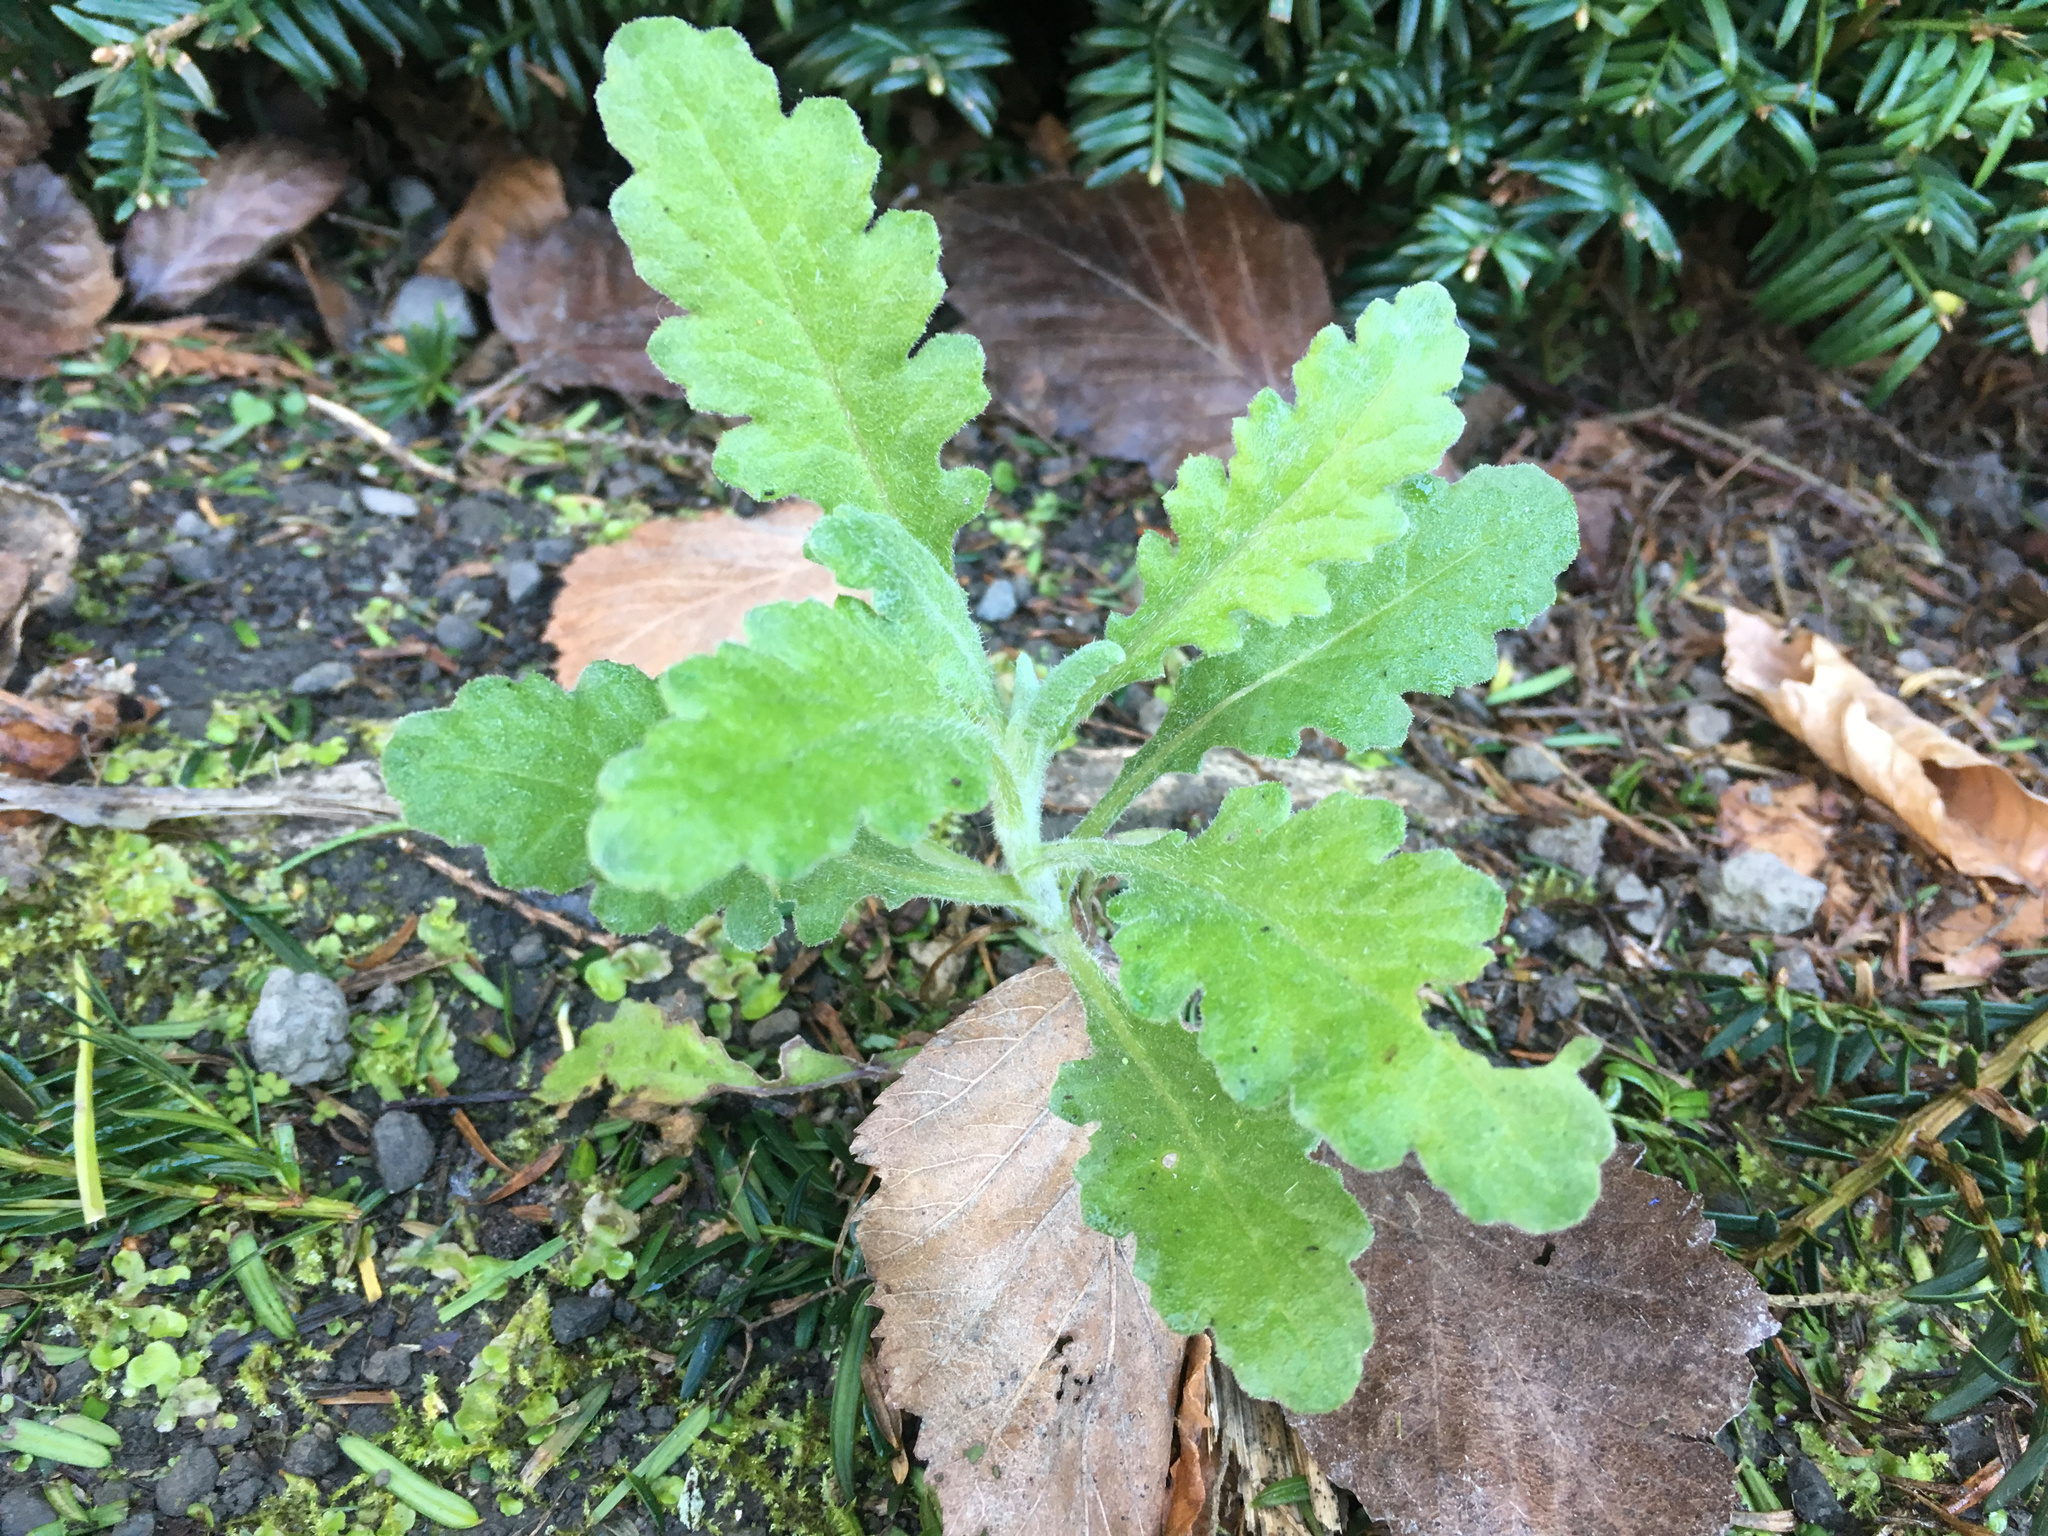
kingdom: Plantae
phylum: Tracheophyta
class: Magnoliopsida
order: Asterales
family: Asteraceae
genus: Senecio
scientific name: Senecio glomeratus
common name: Cutleaf burnweed
